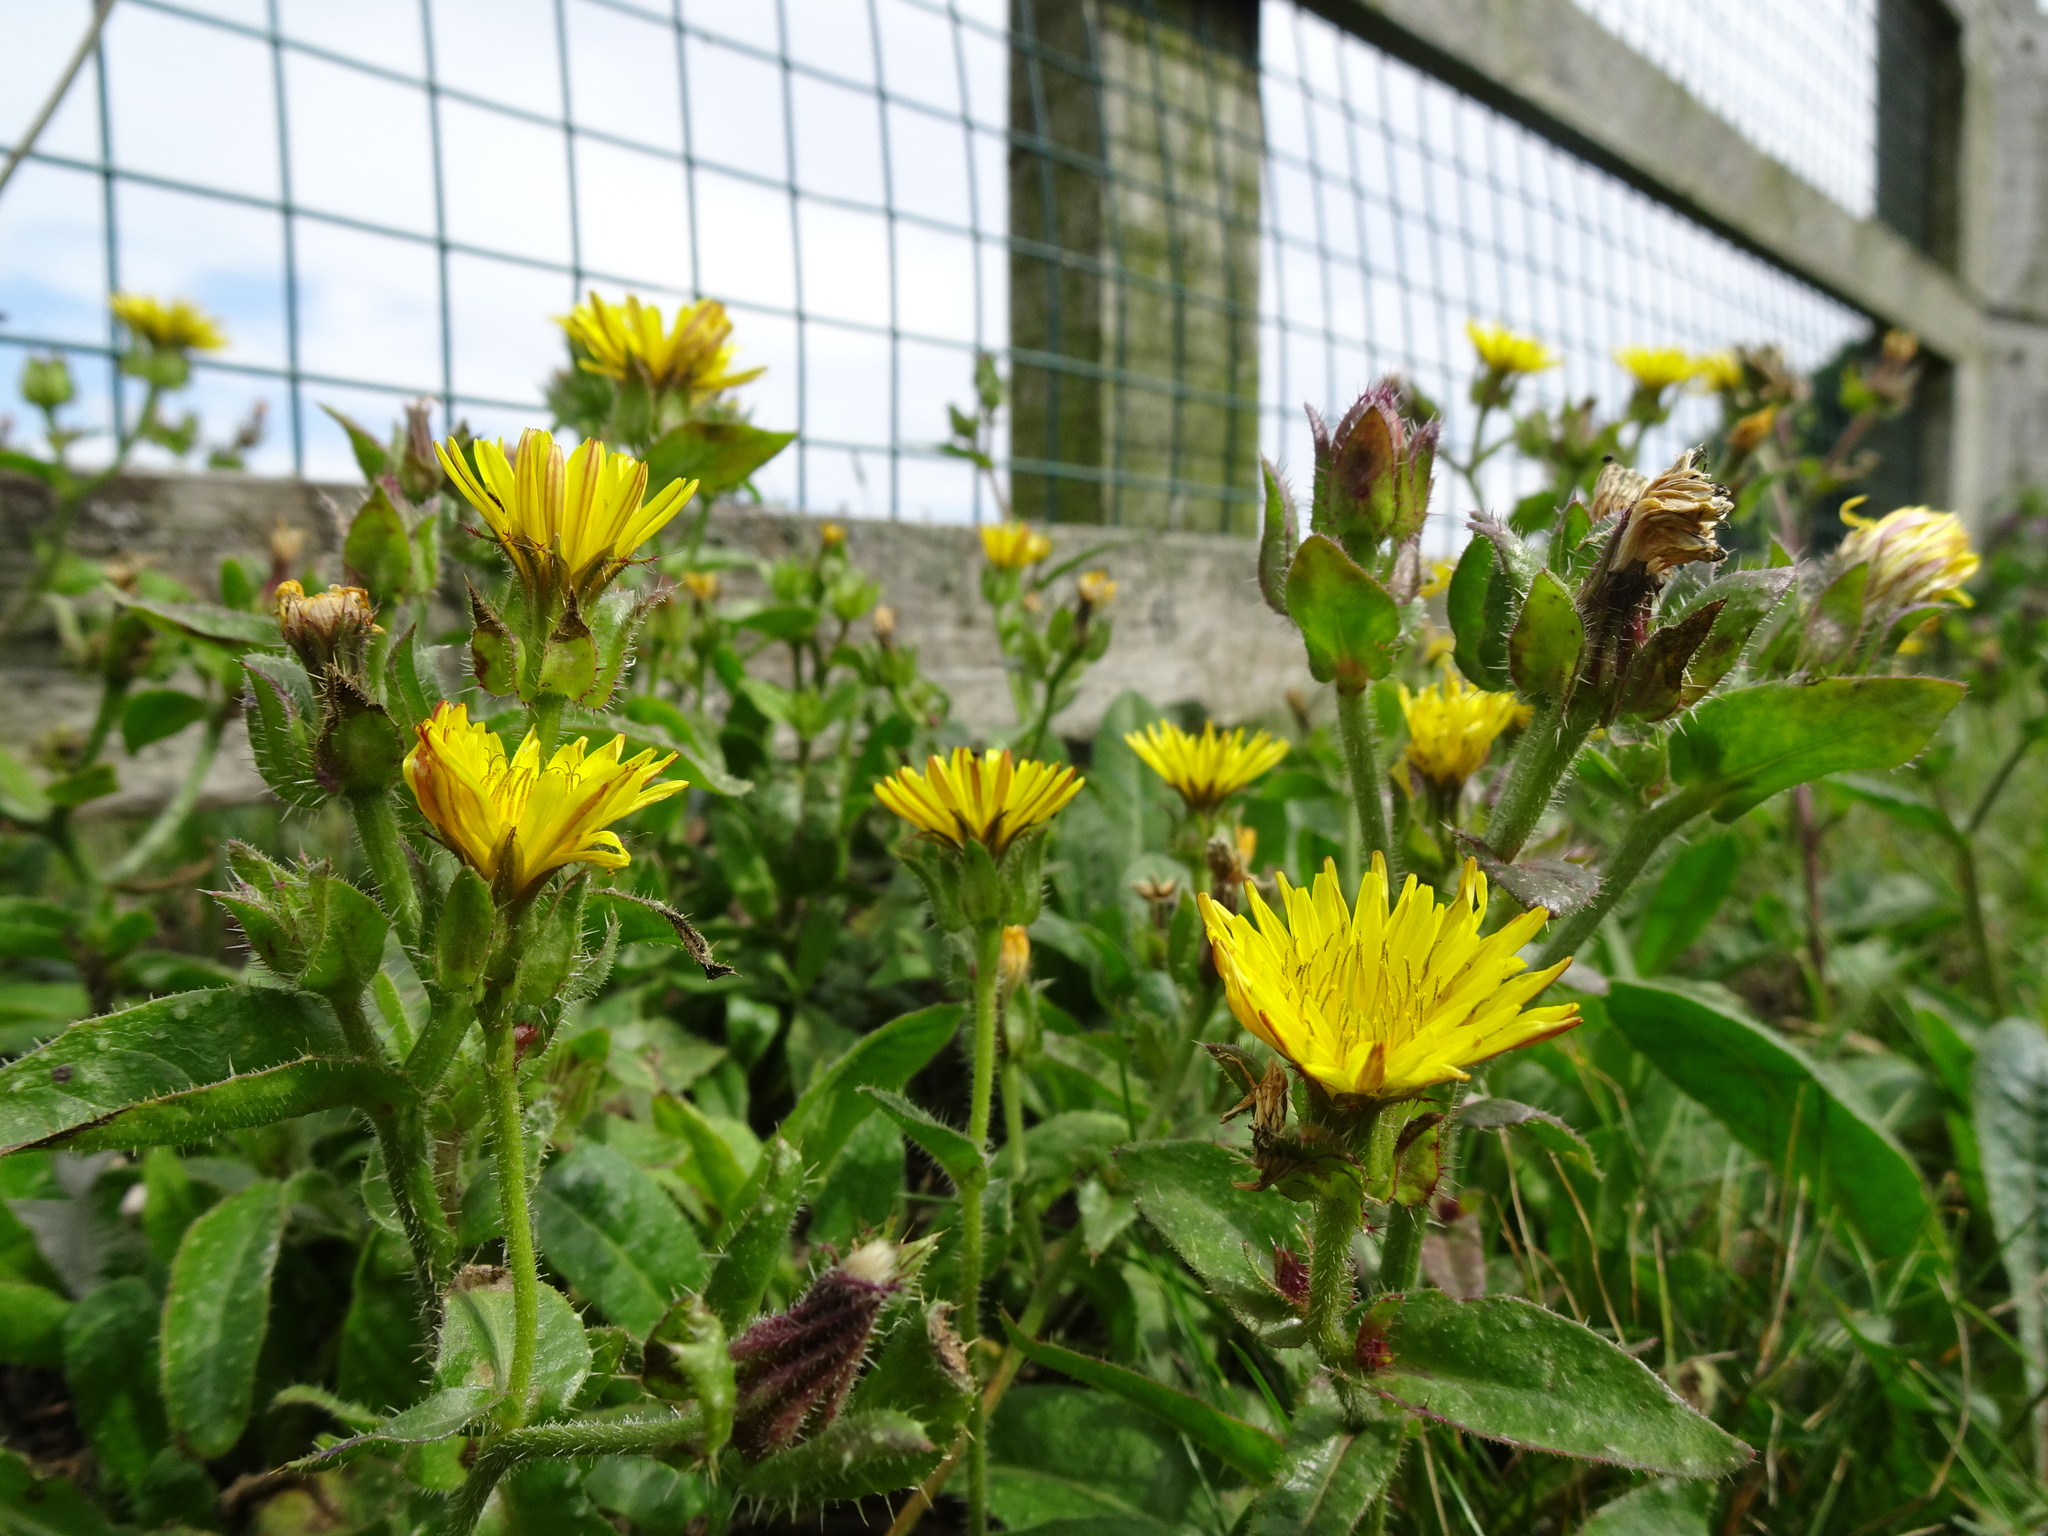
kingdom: Plantae
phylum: Tracheophyta
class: Magnoliopsida
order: Asterales
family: Asteraceae
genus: Helminthotheca
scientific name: Helminthotheca echioides
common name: Ox-tongue
